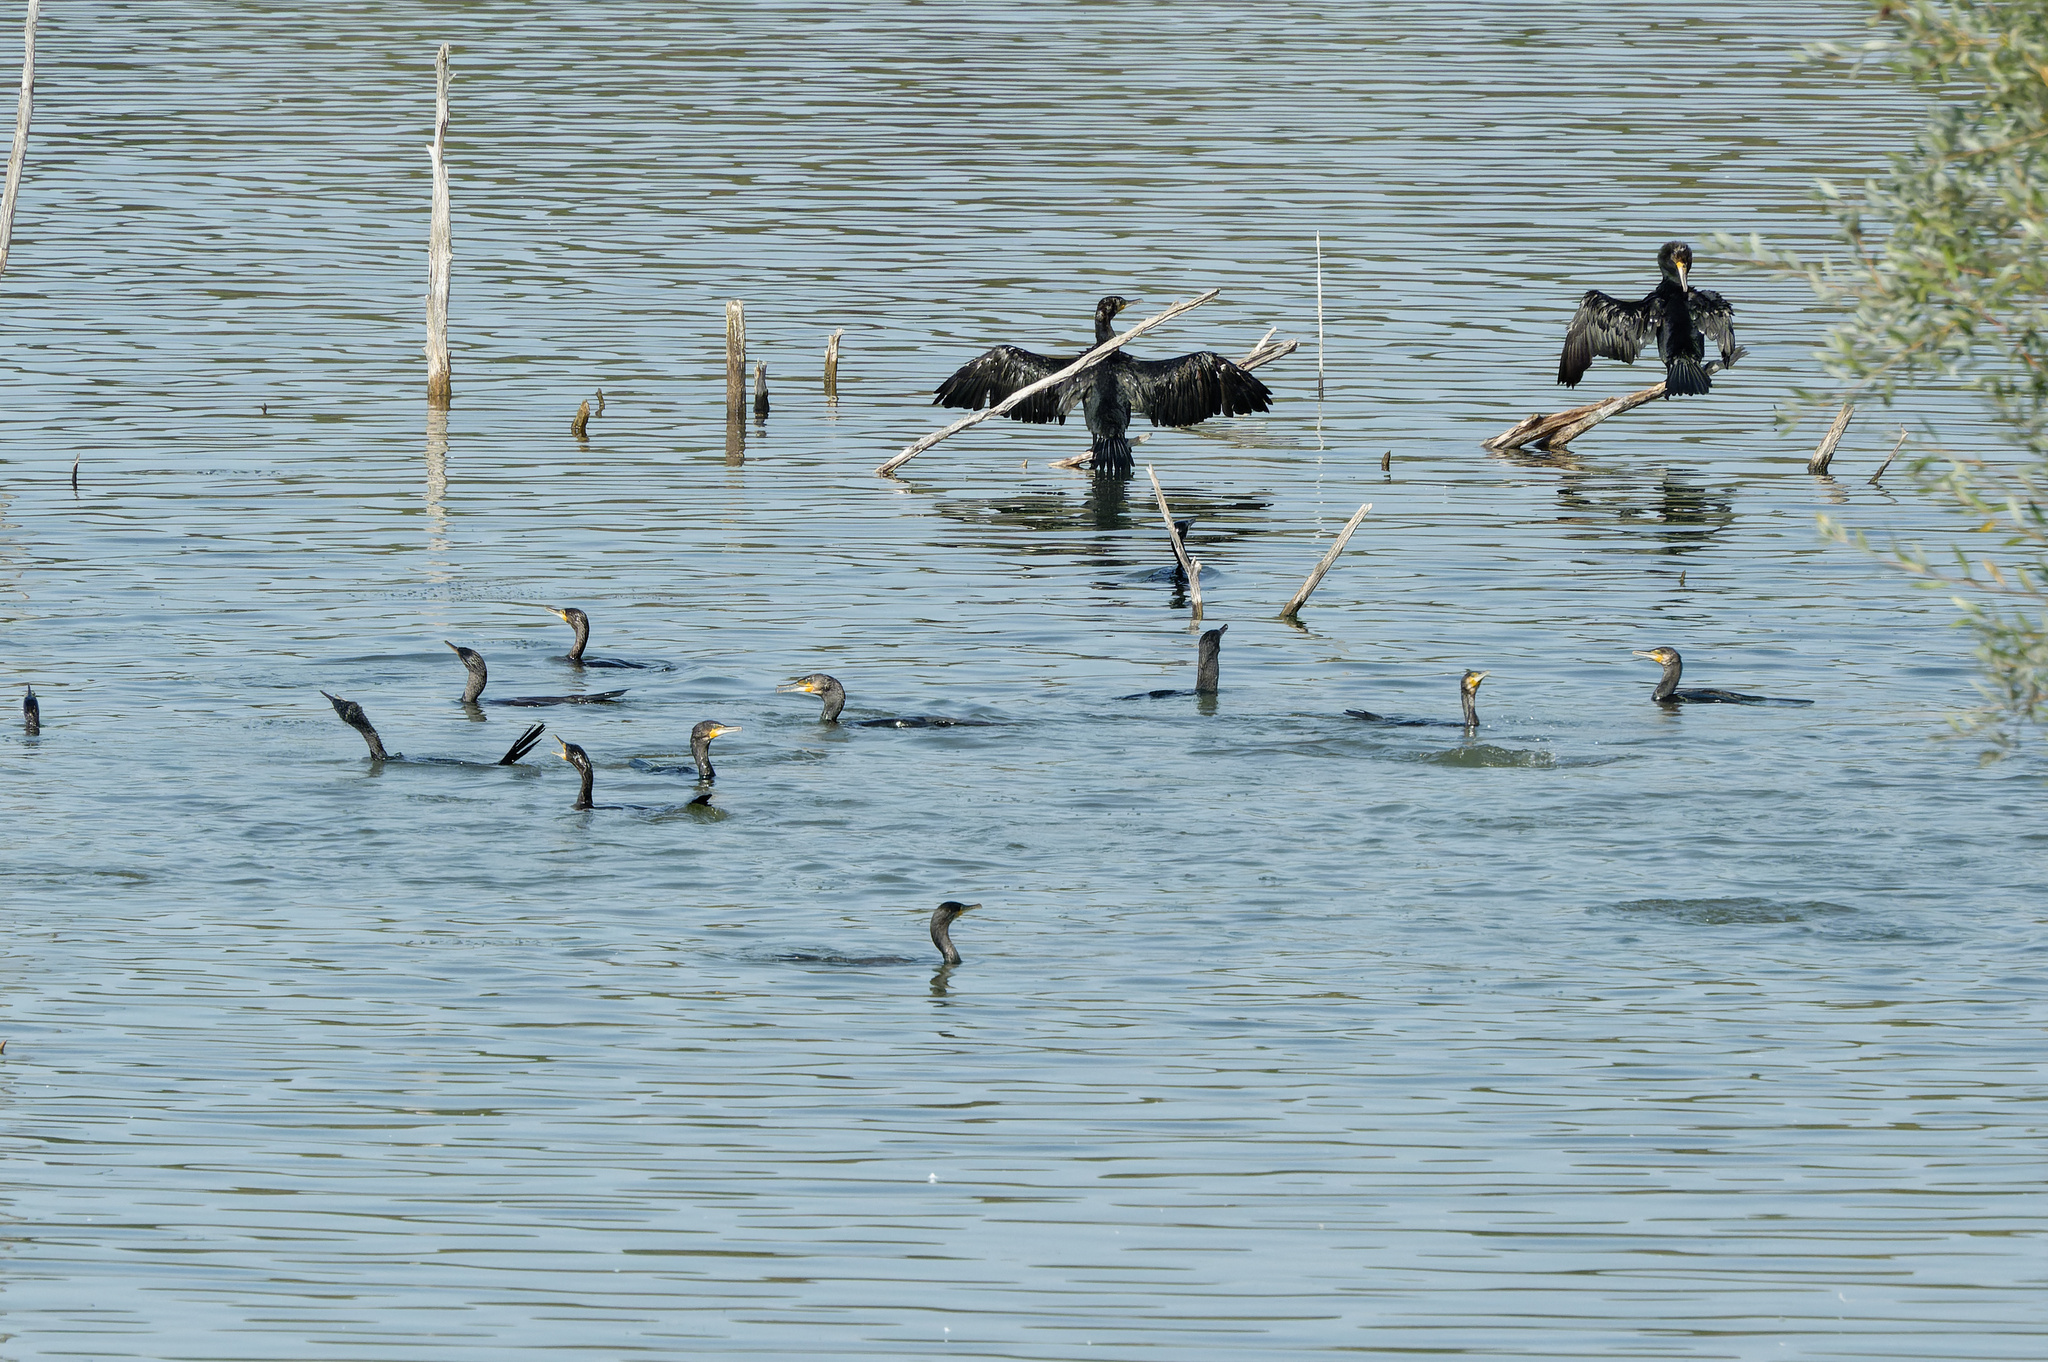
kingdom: Animalia
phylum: Chordata
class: Aves
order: Suliformes
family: Phalacrocoracidae
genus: Phalacrocorax
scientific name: Phalacrocorax carbo
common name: Great cormorant
